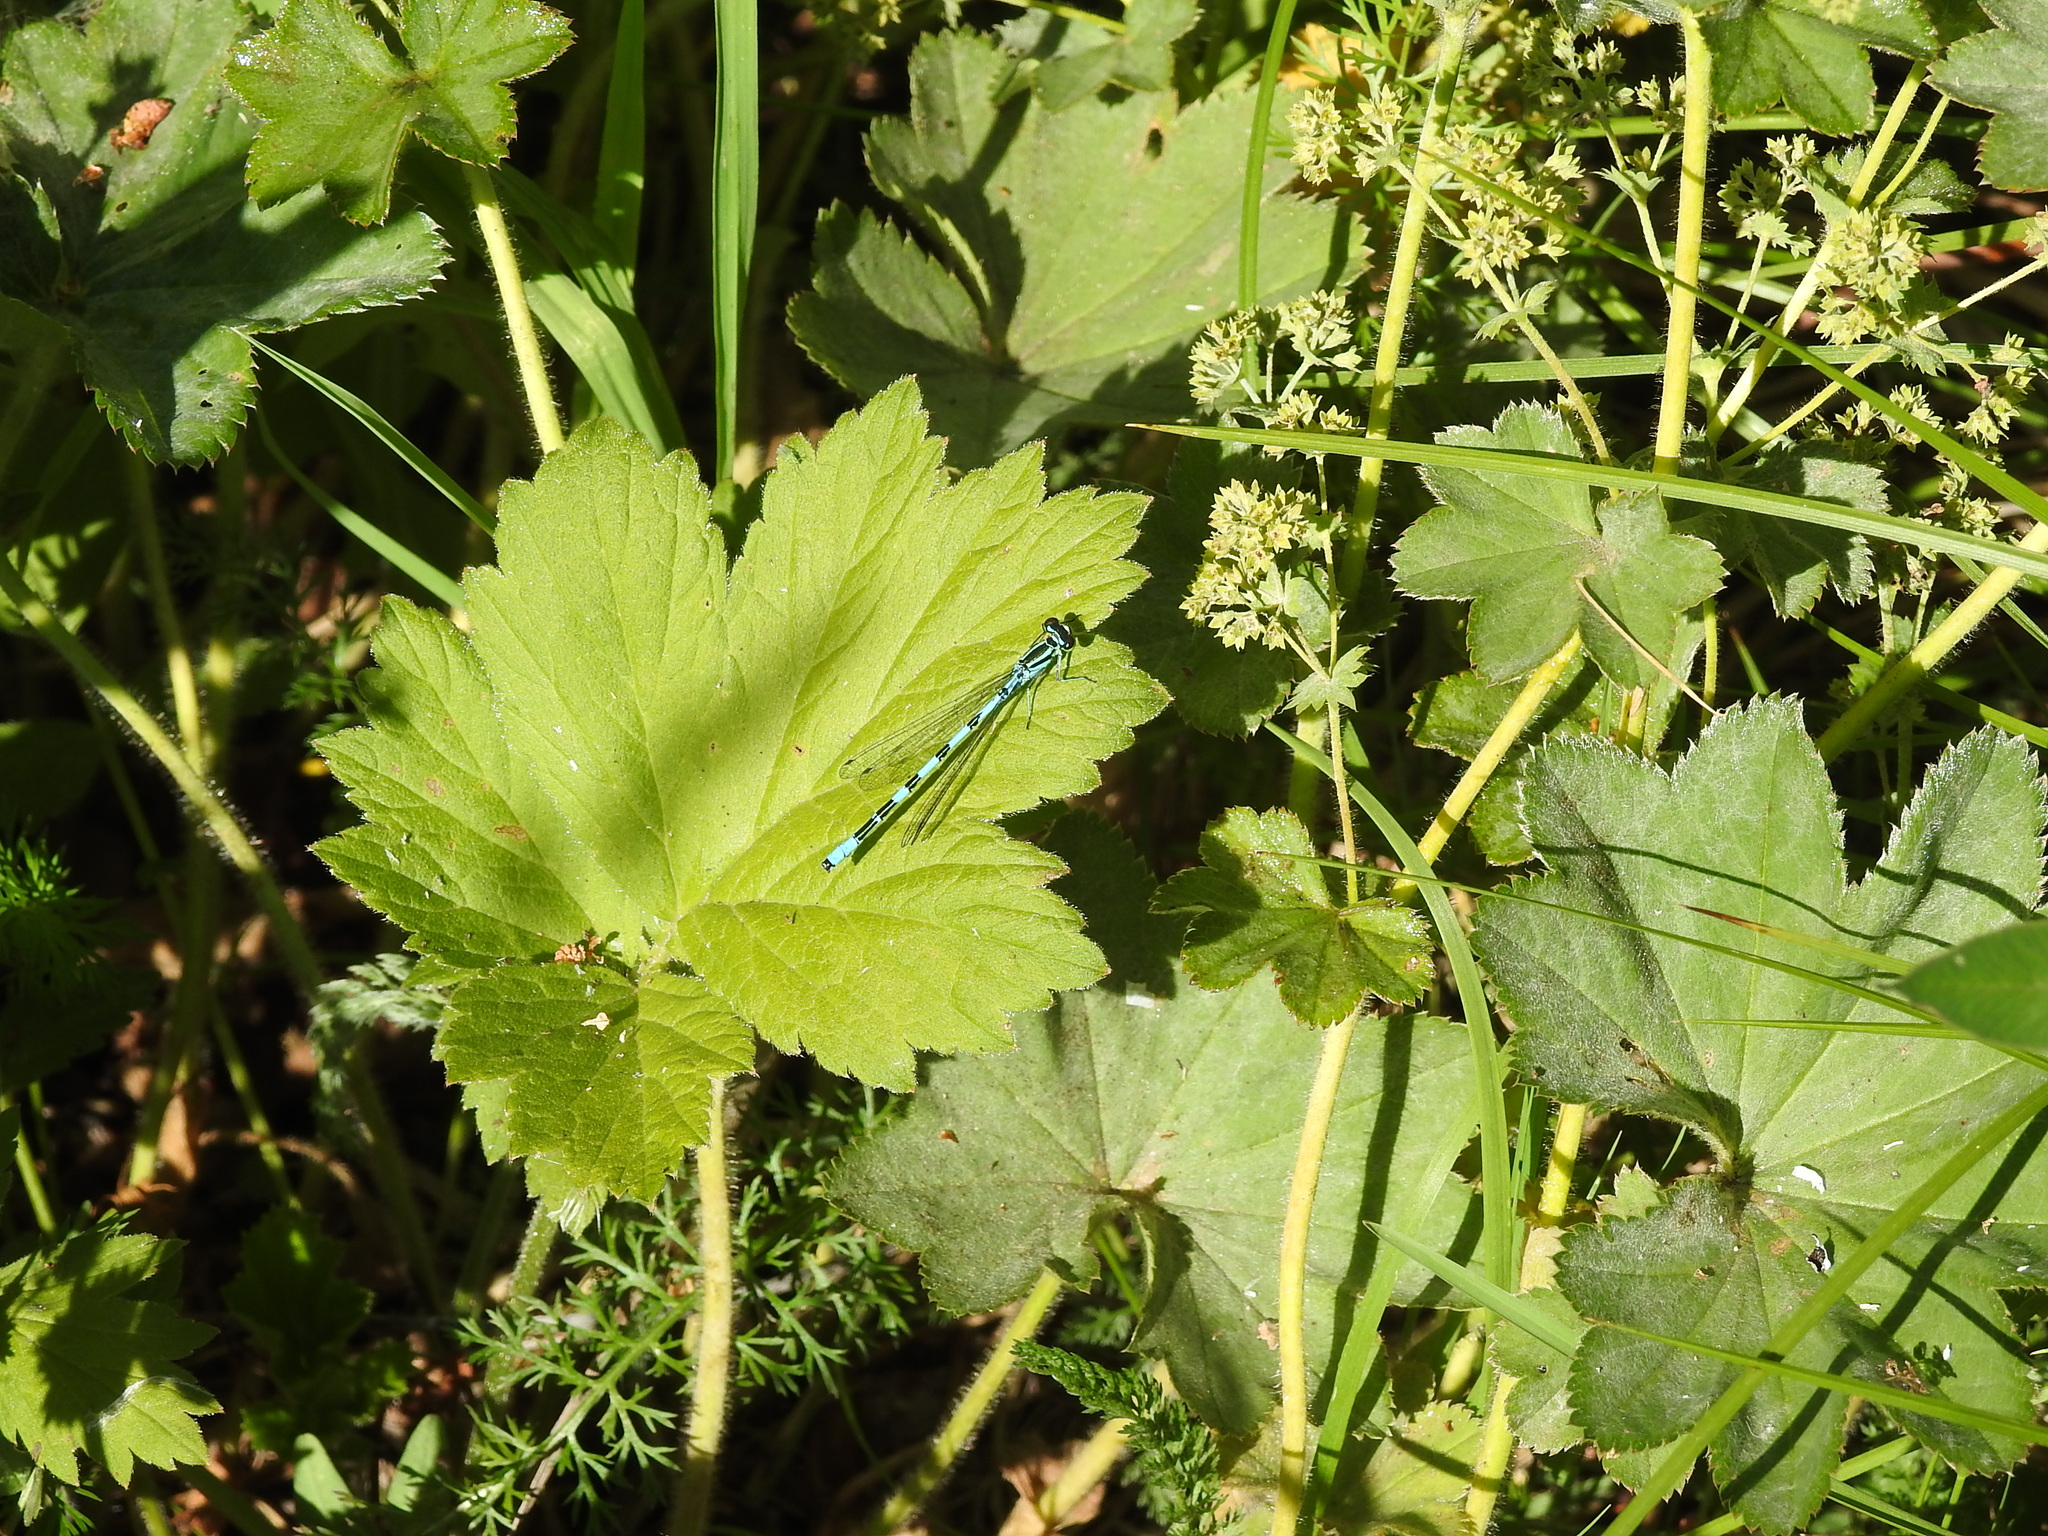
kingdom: Animalia
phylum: Arthropoda
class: Insecta
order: Odonata
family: Coenagrionidae
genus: Coenagrion
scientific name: Coenagrion hastulatum
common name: Spearhead bluet
